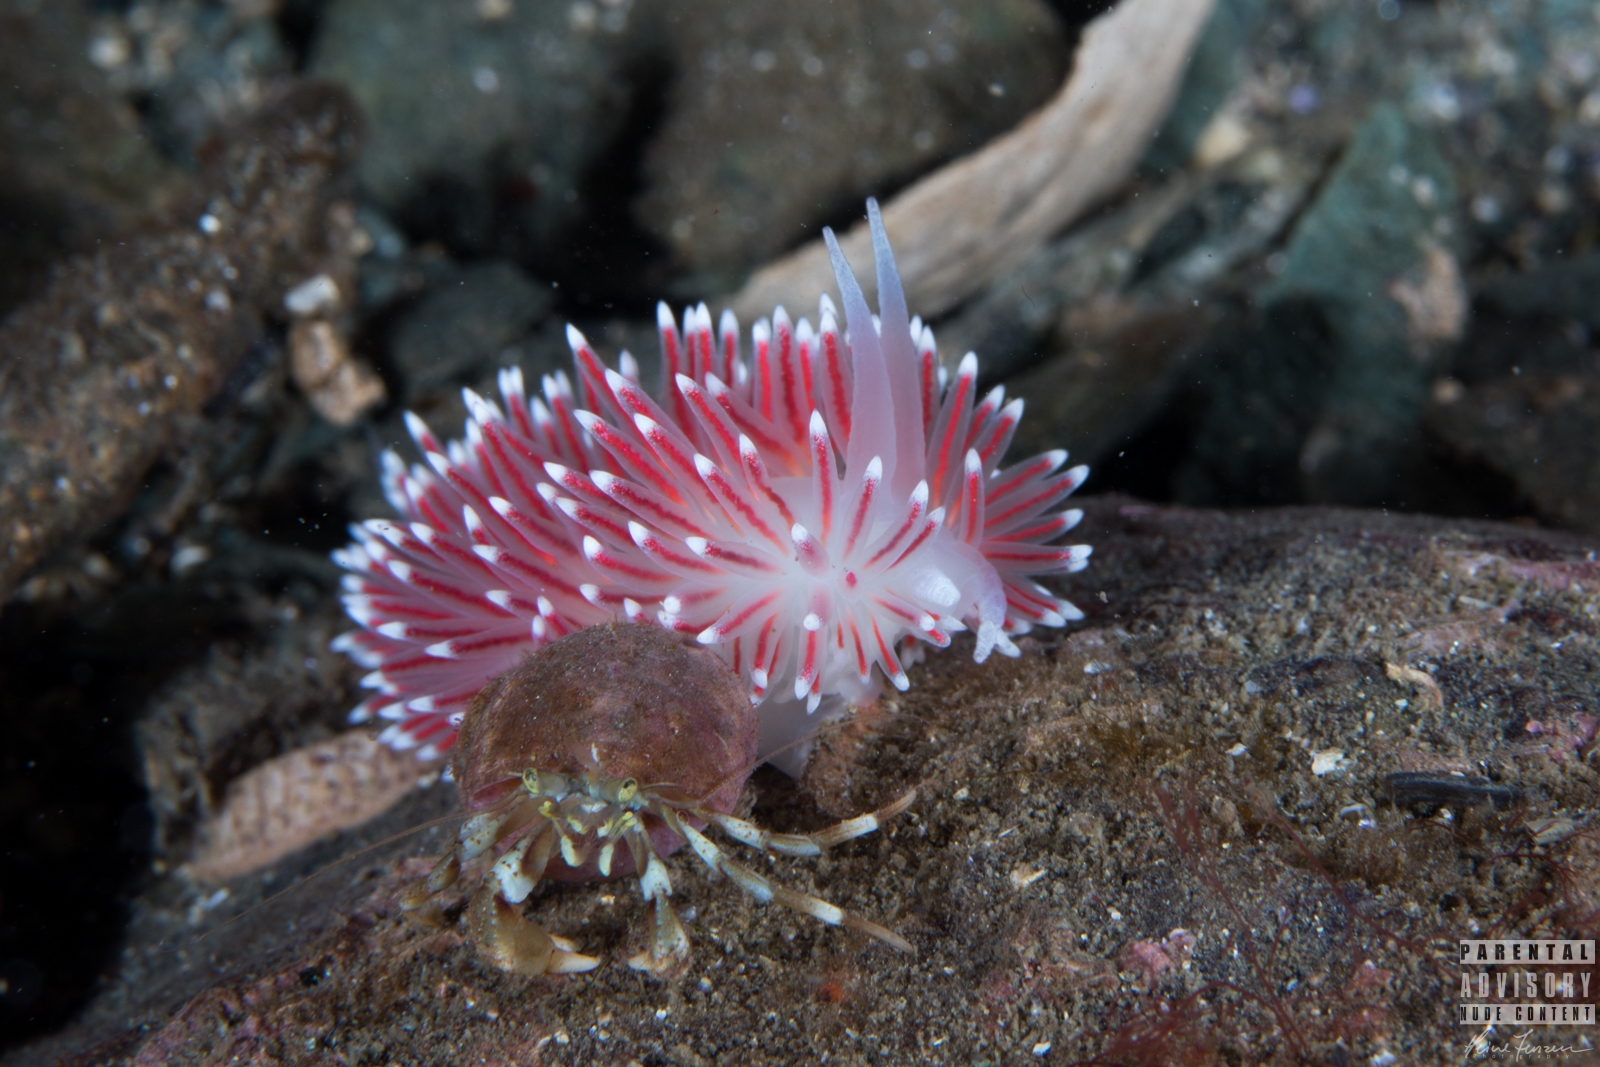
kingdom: Animalia
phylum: Mollusca
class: Gastropoda
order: Nudibranchia
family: Flabellinidae
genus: Carronella
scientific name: Carronella pellucida
